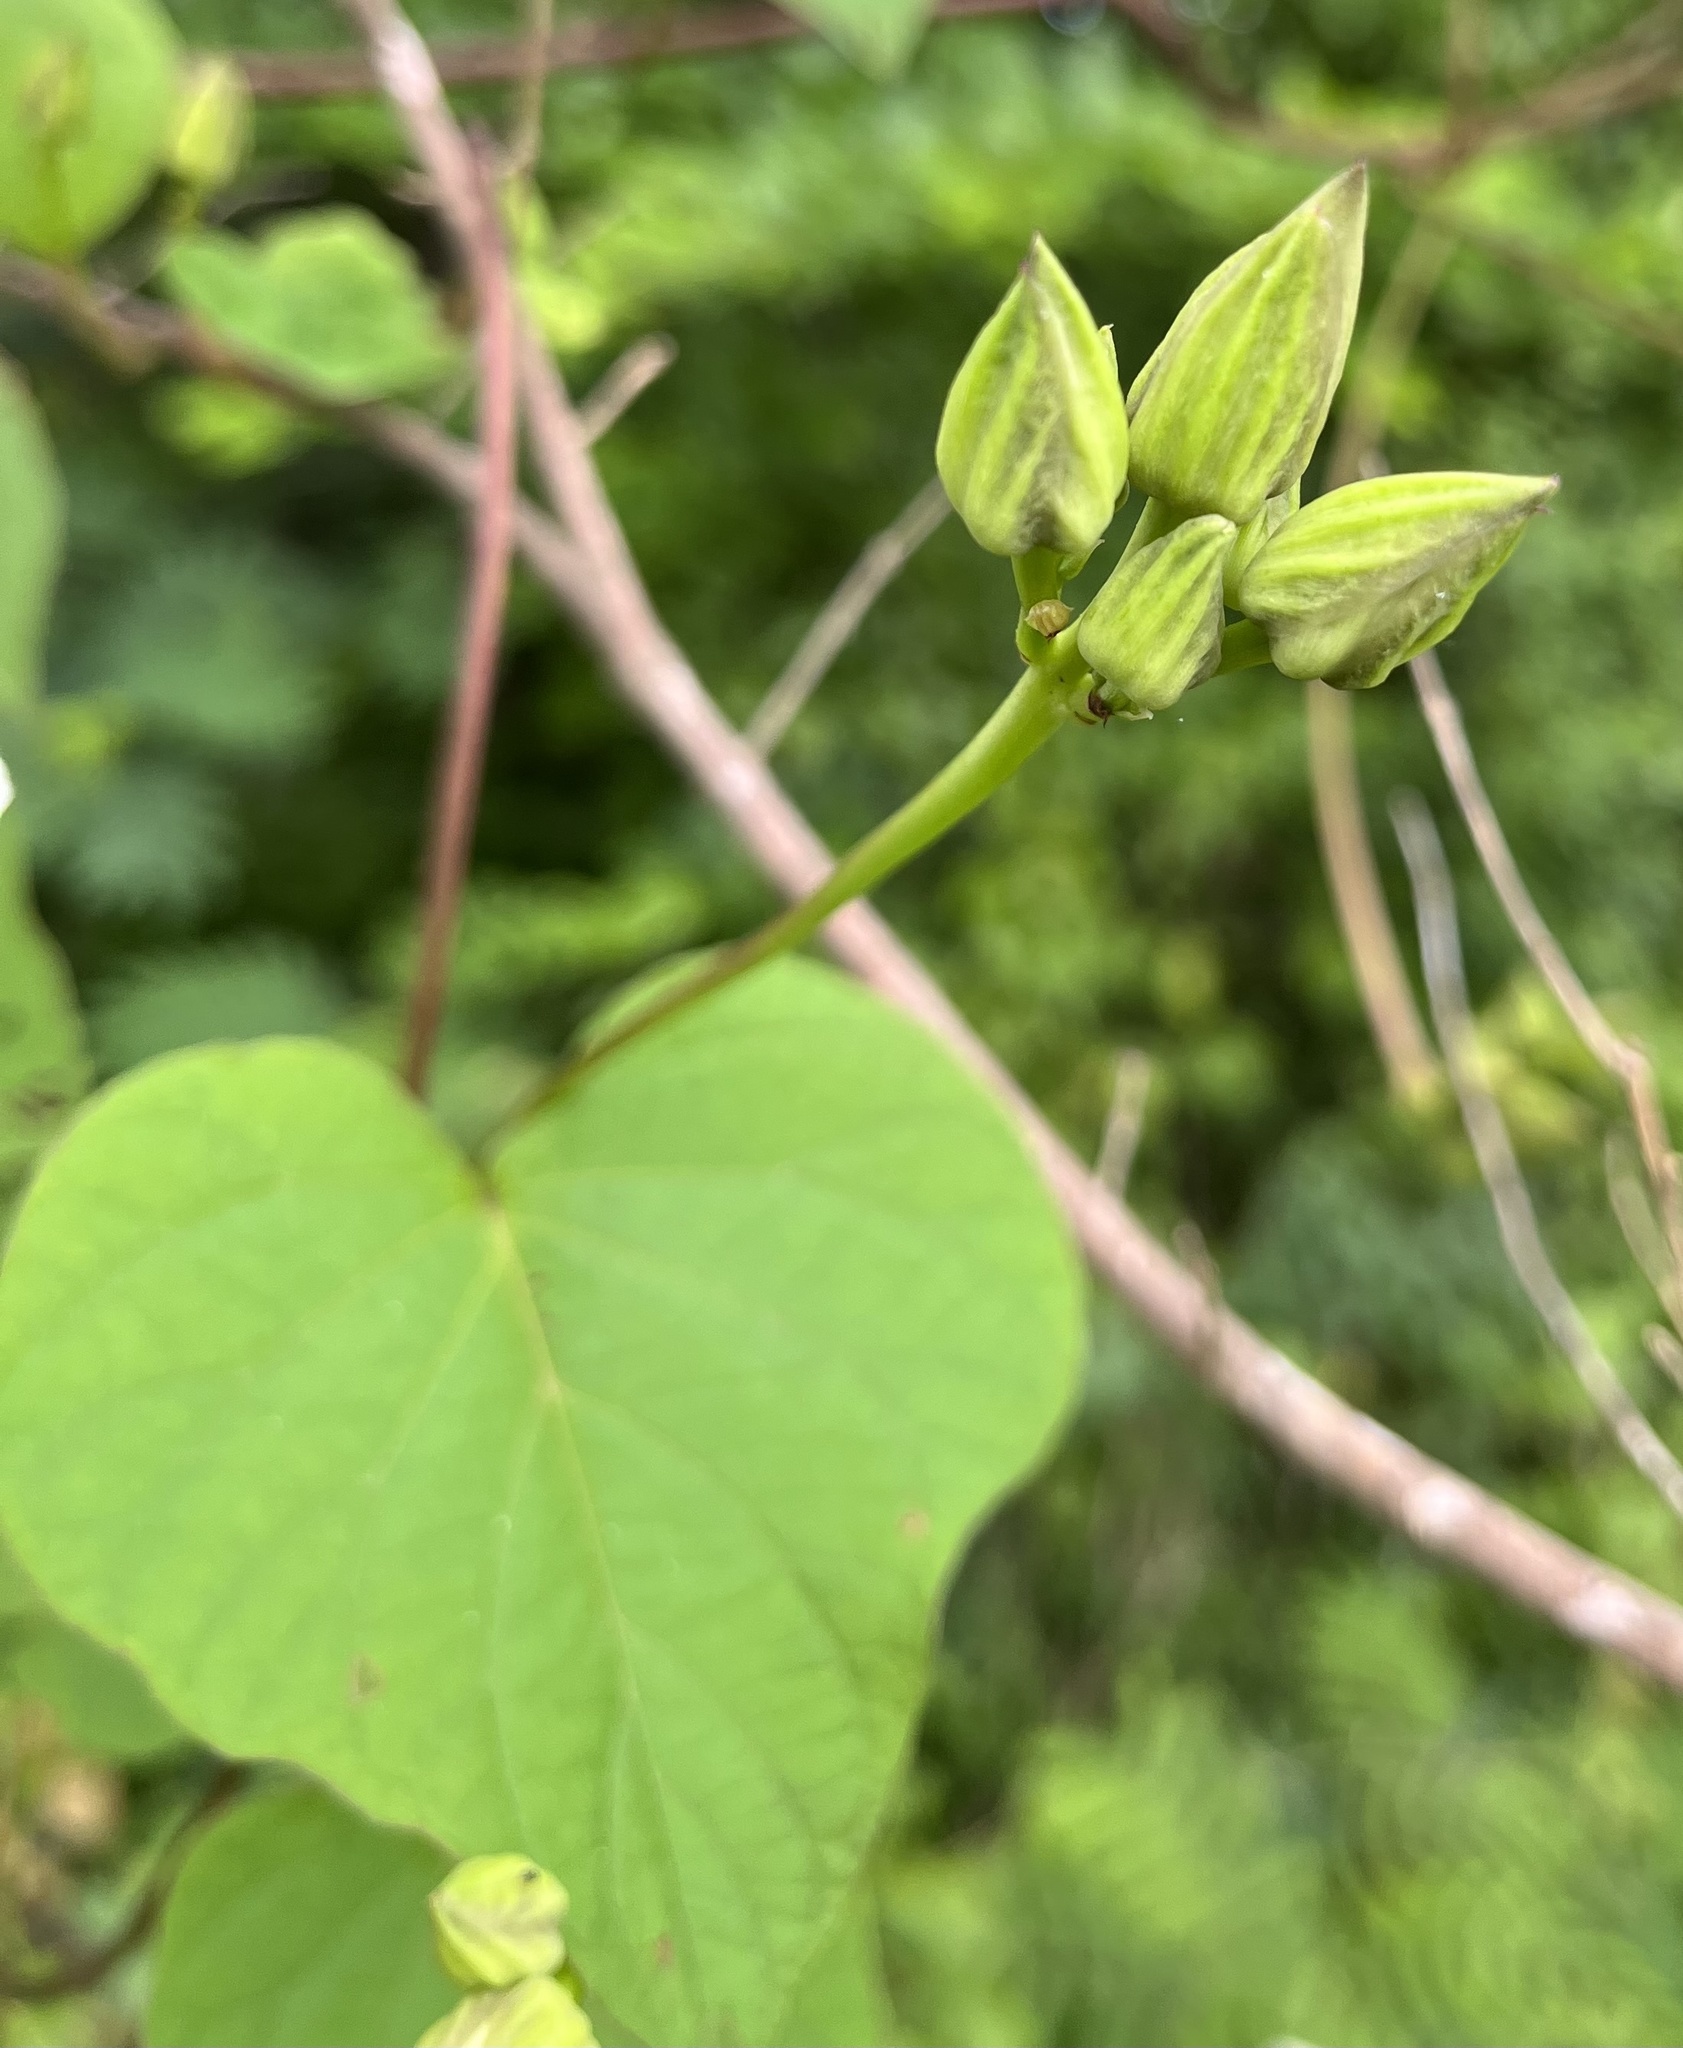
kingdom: Plantae
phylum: Tracheophyta
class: Magnoliopsida
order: Solanales
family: Convolvulaceae
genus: Ipomoea
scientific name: Ipomoea pandurata
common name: Man-of-the-earth
